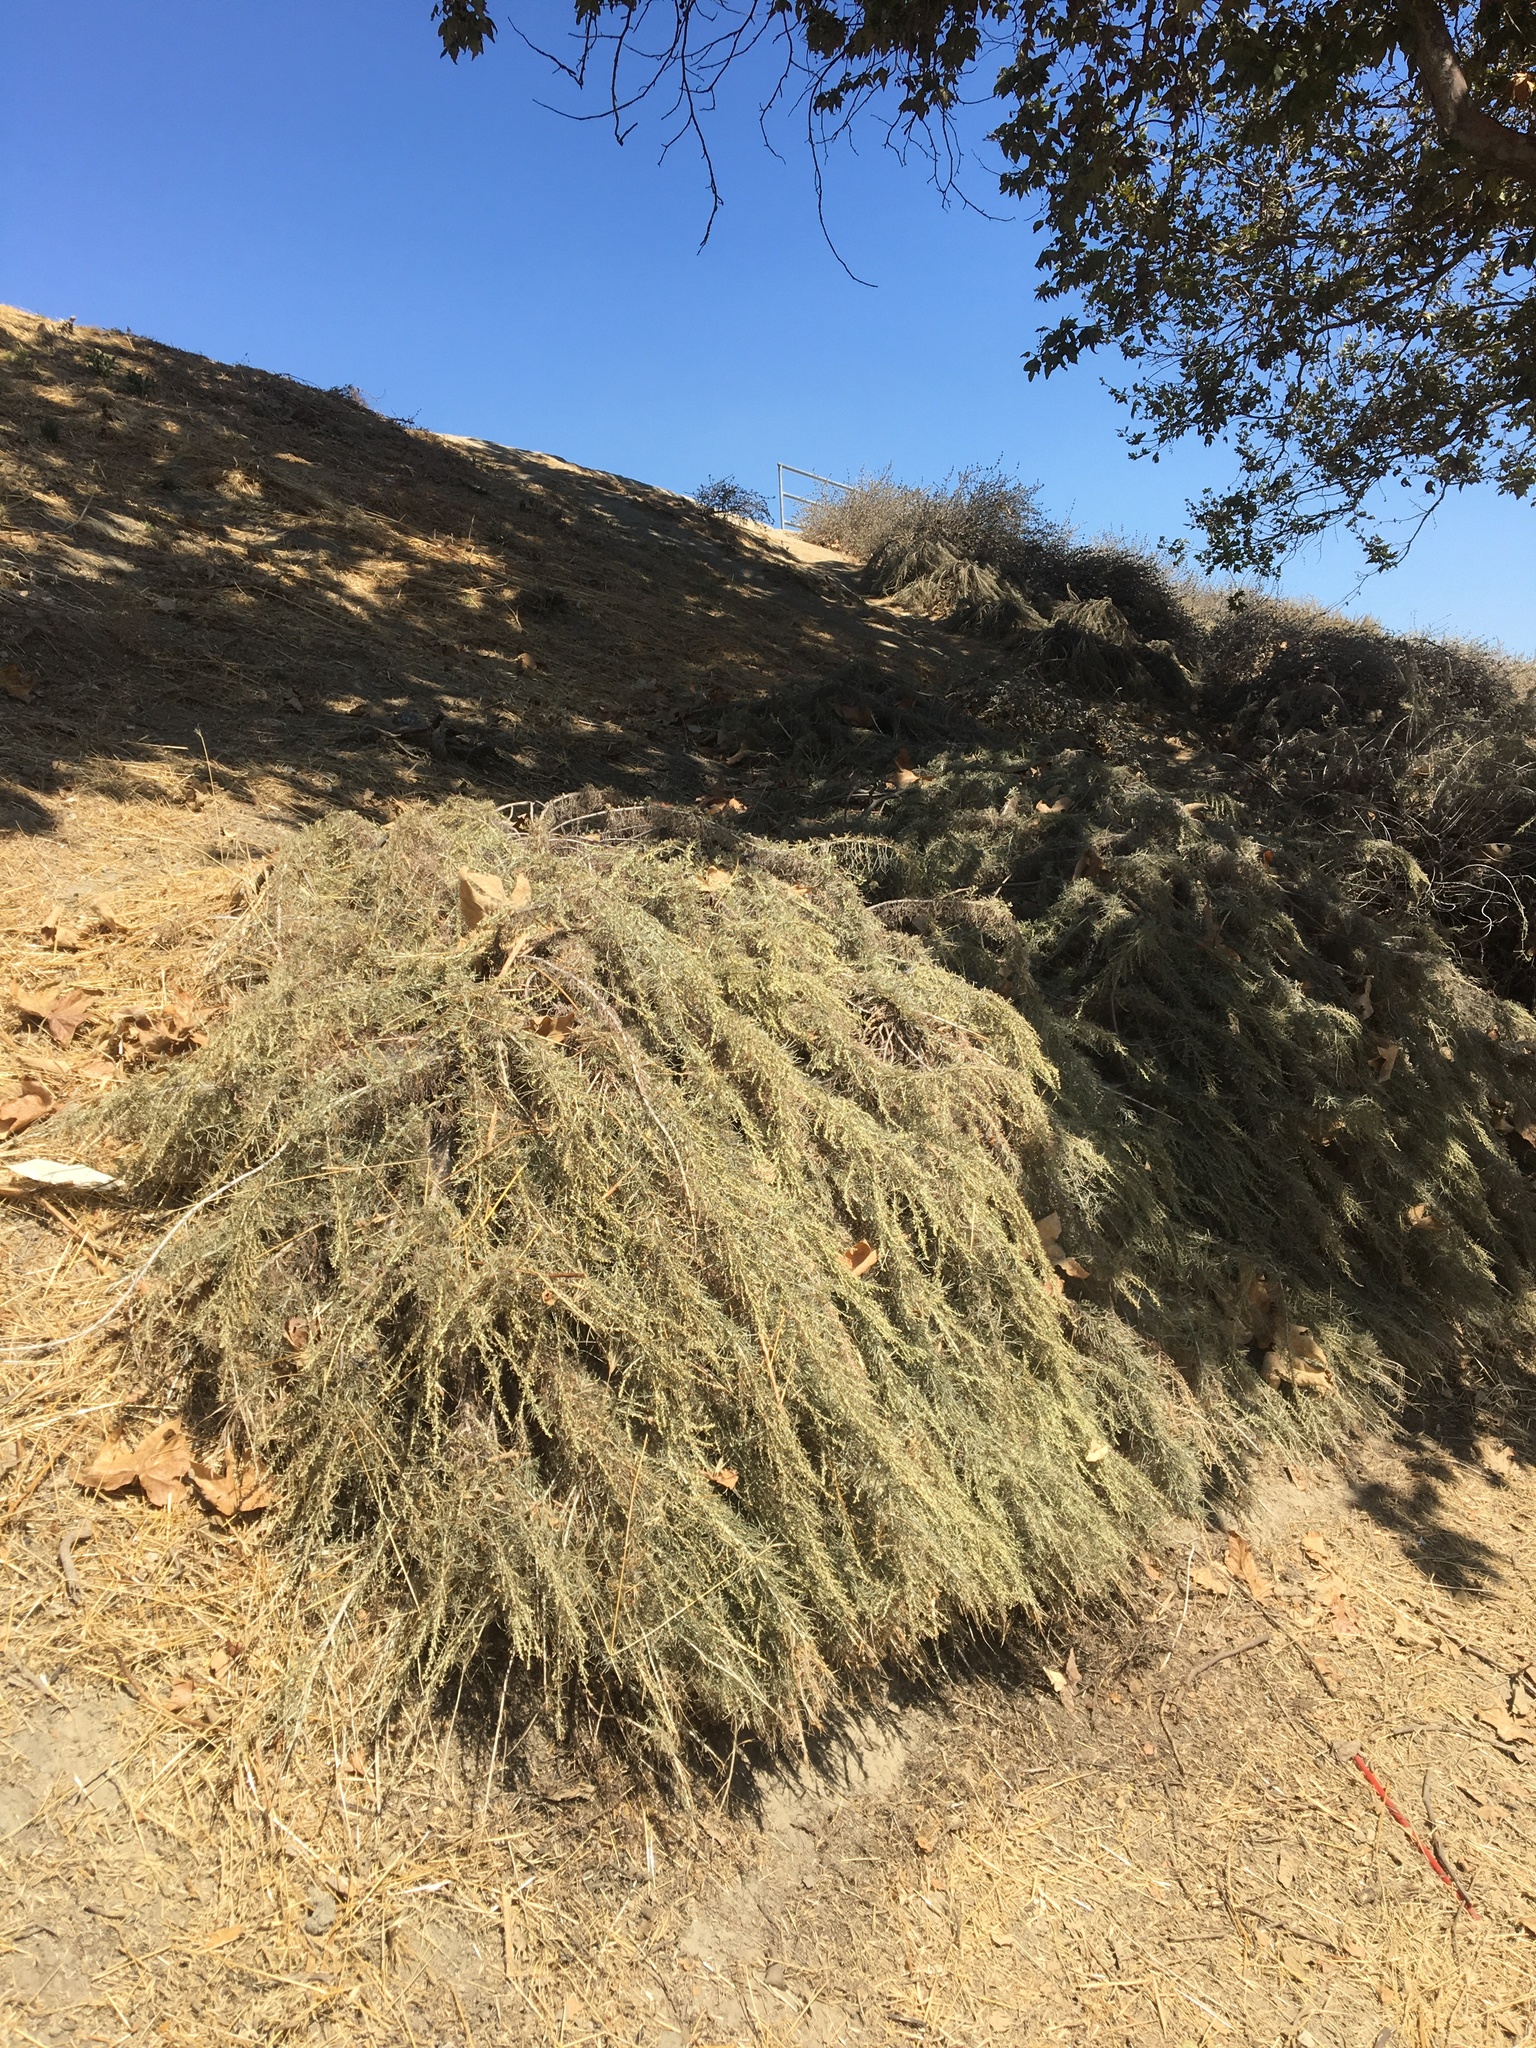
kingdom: Plantae
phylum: Tracheophyta
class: Magnoliopsida
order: Asterales
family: Asteraceae
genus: Artemisia
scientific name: Artemisia californica
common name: California sagebrush
